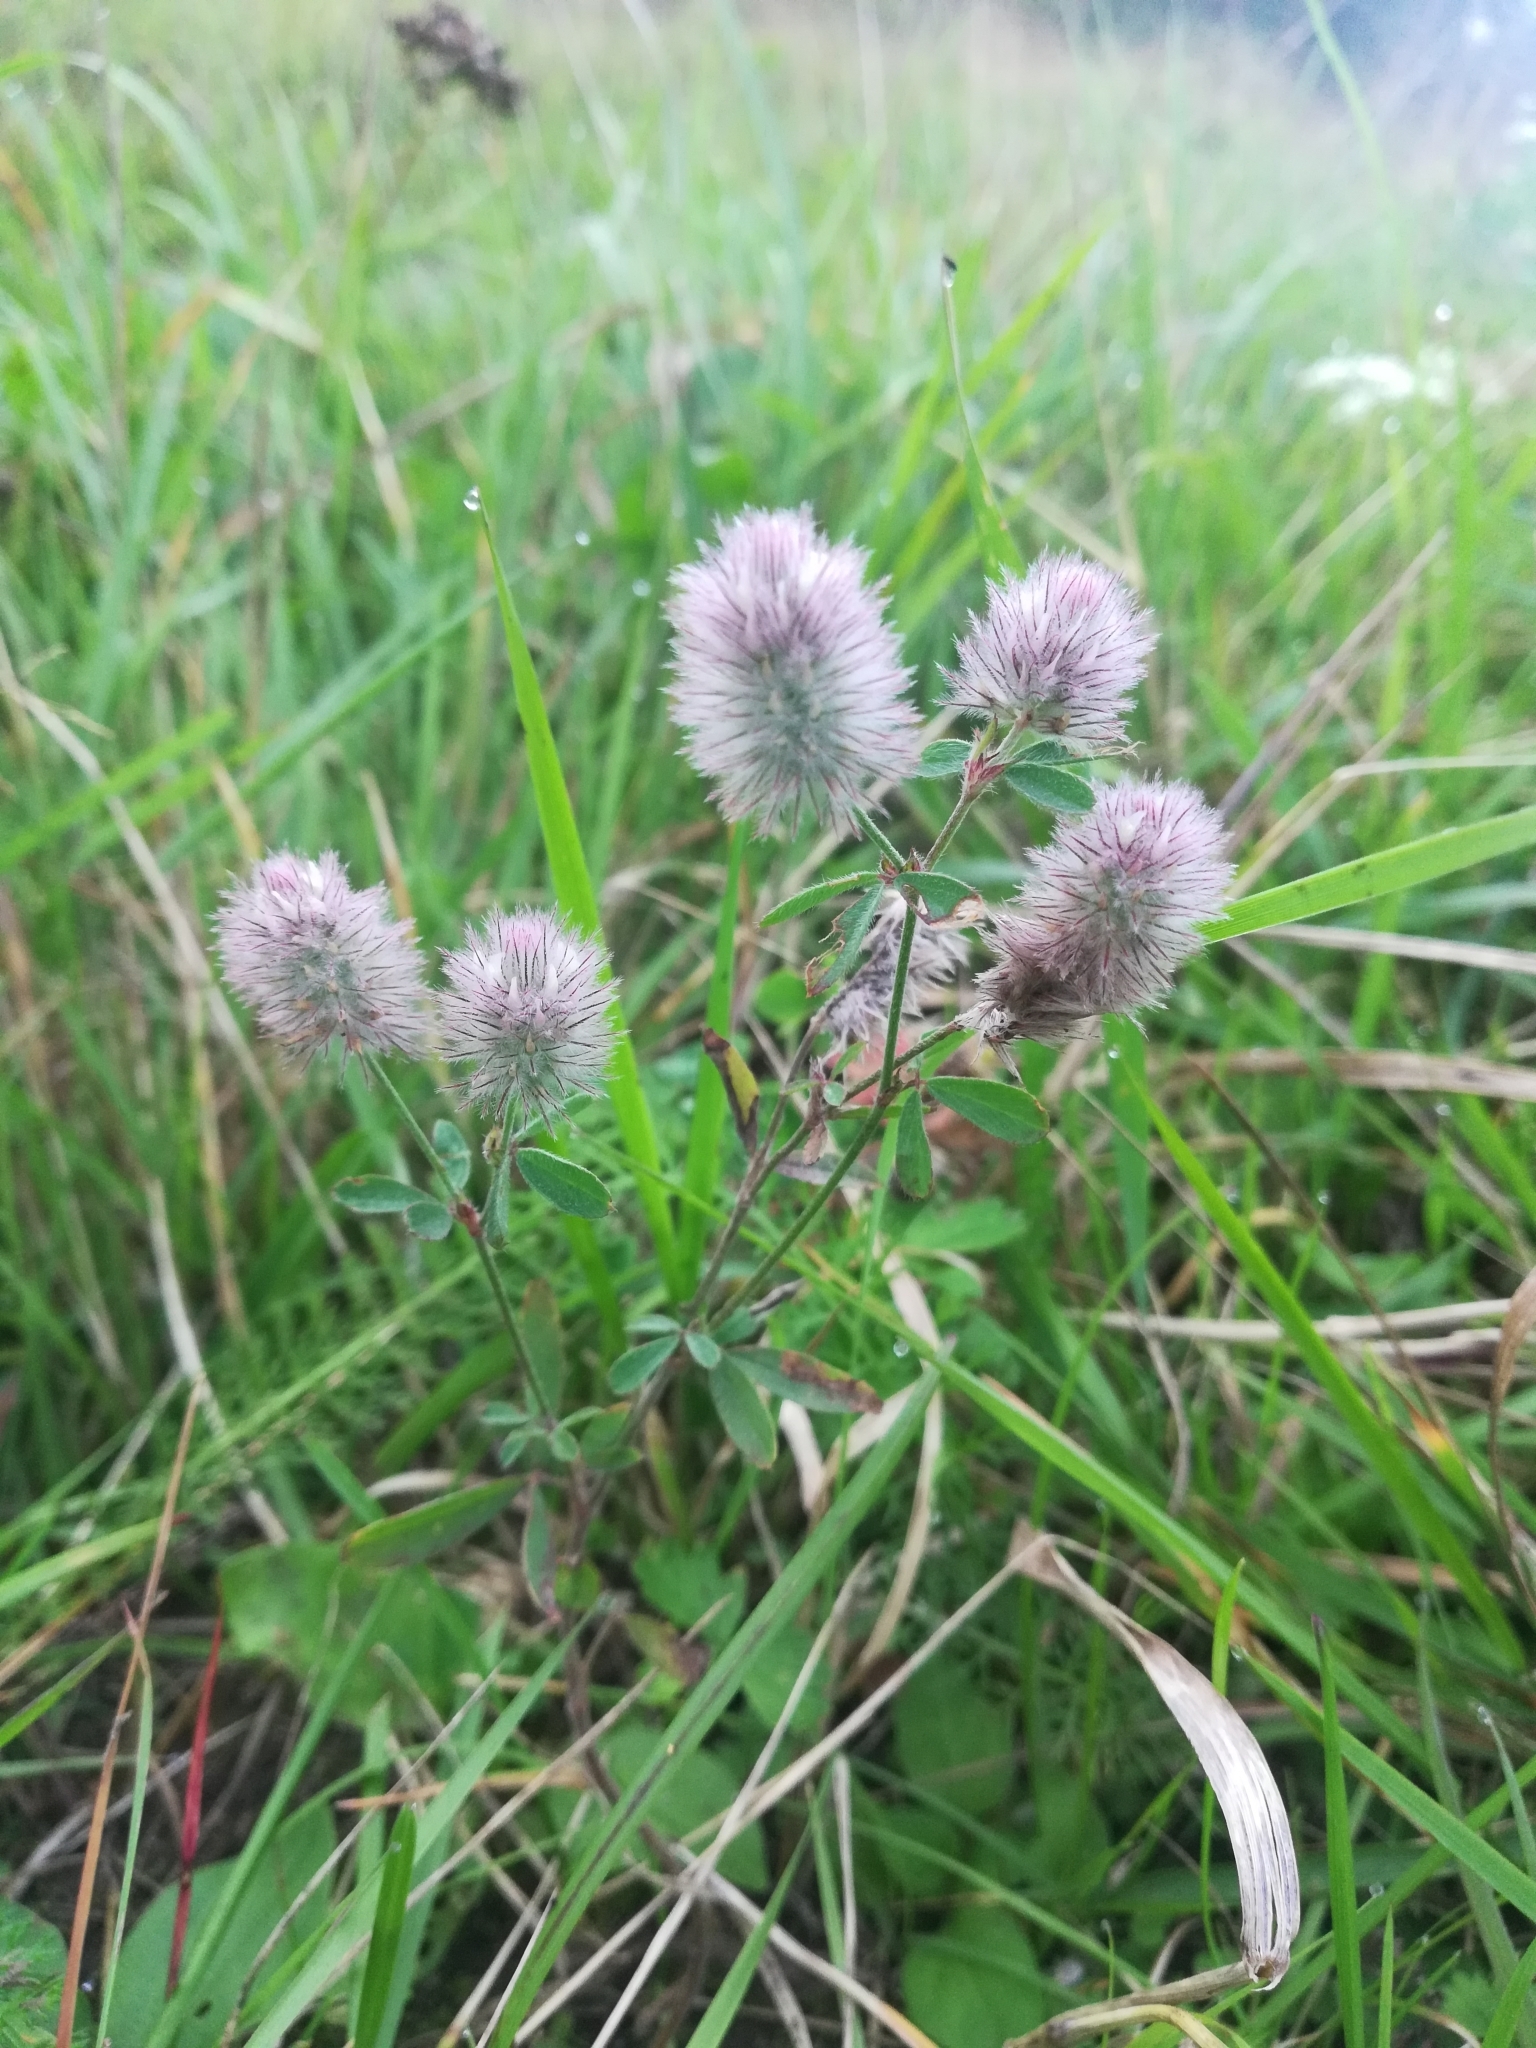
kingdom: Plantae
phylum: Tracheophyta
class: Magnoliopsida
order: Fabales
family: Fabaceae
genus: Trifolium
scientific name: Trifolium arvense
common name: Hare's-foot clover
